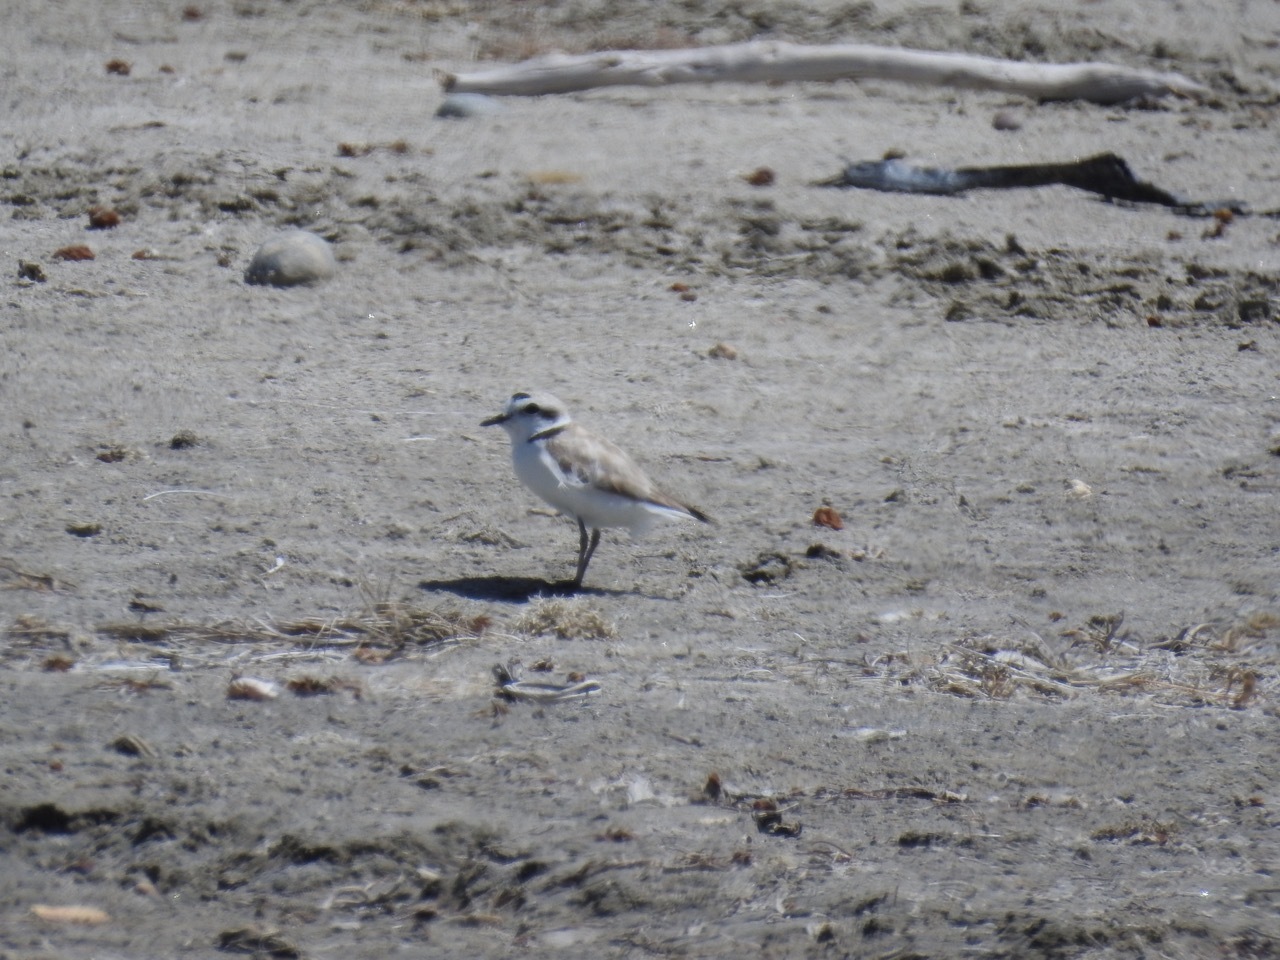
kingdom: Animalia
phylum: Chordata
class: Aves
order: Charadriiformes
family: Charadriidae
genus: Anarhynchus
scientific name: Anarhynchus
